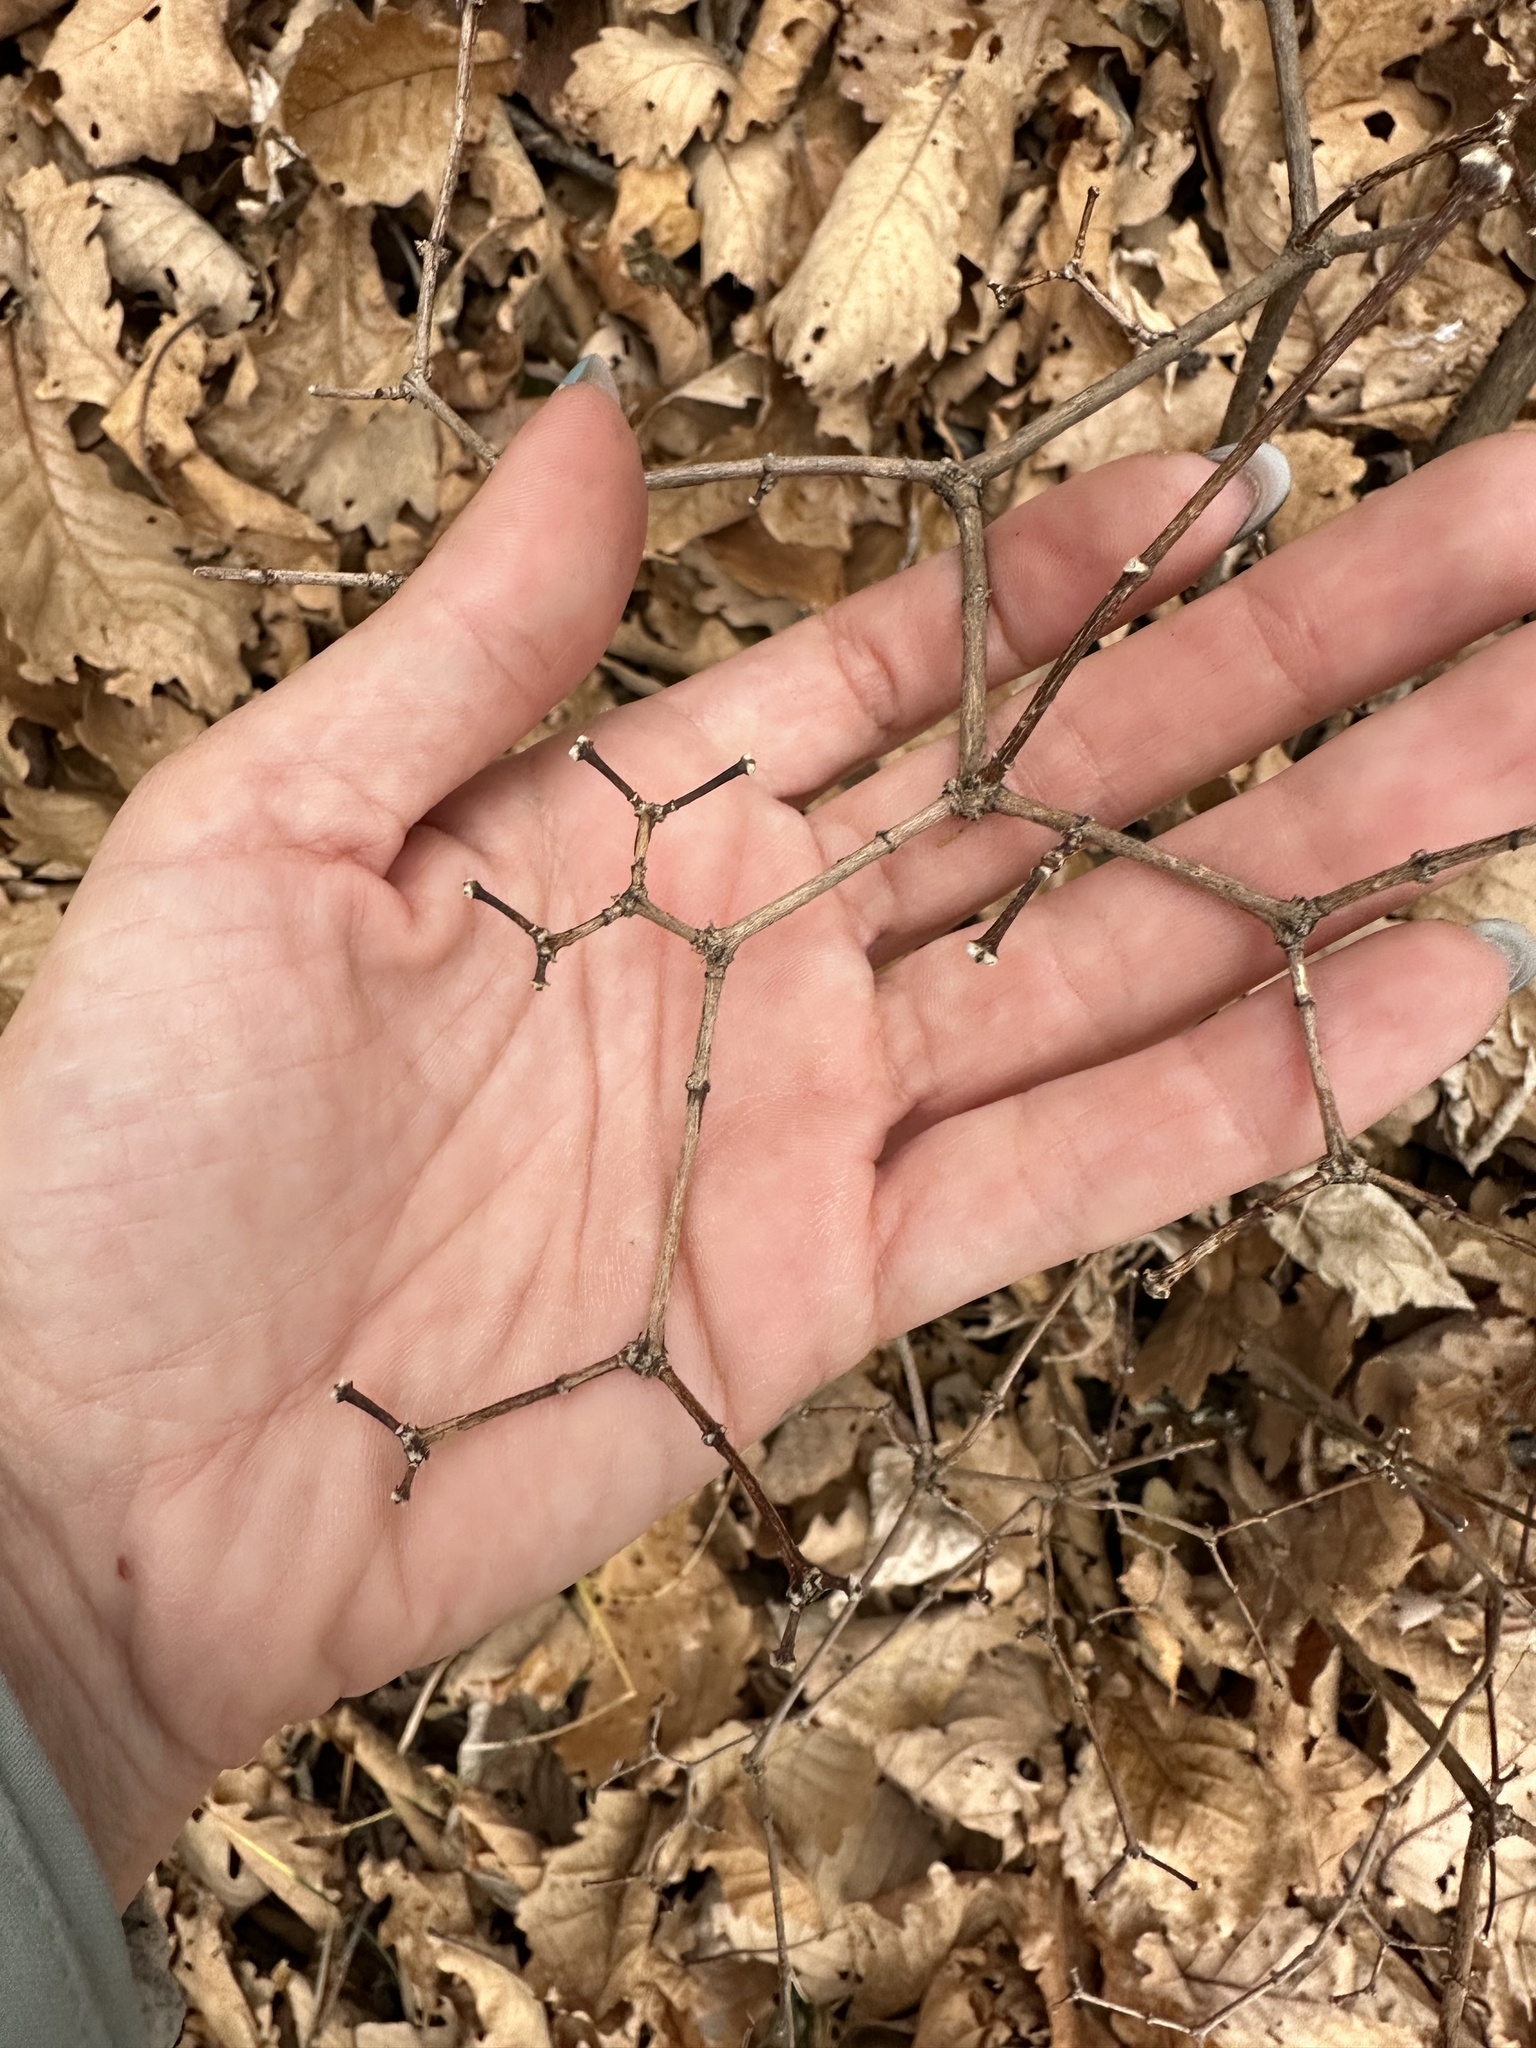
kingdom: Plantae
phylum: Tracheophyta
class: Magnoliopsida
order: Cornales
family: Hydrangeaceae
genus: Philadelphus
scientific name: Philadelphus tenuifolius
